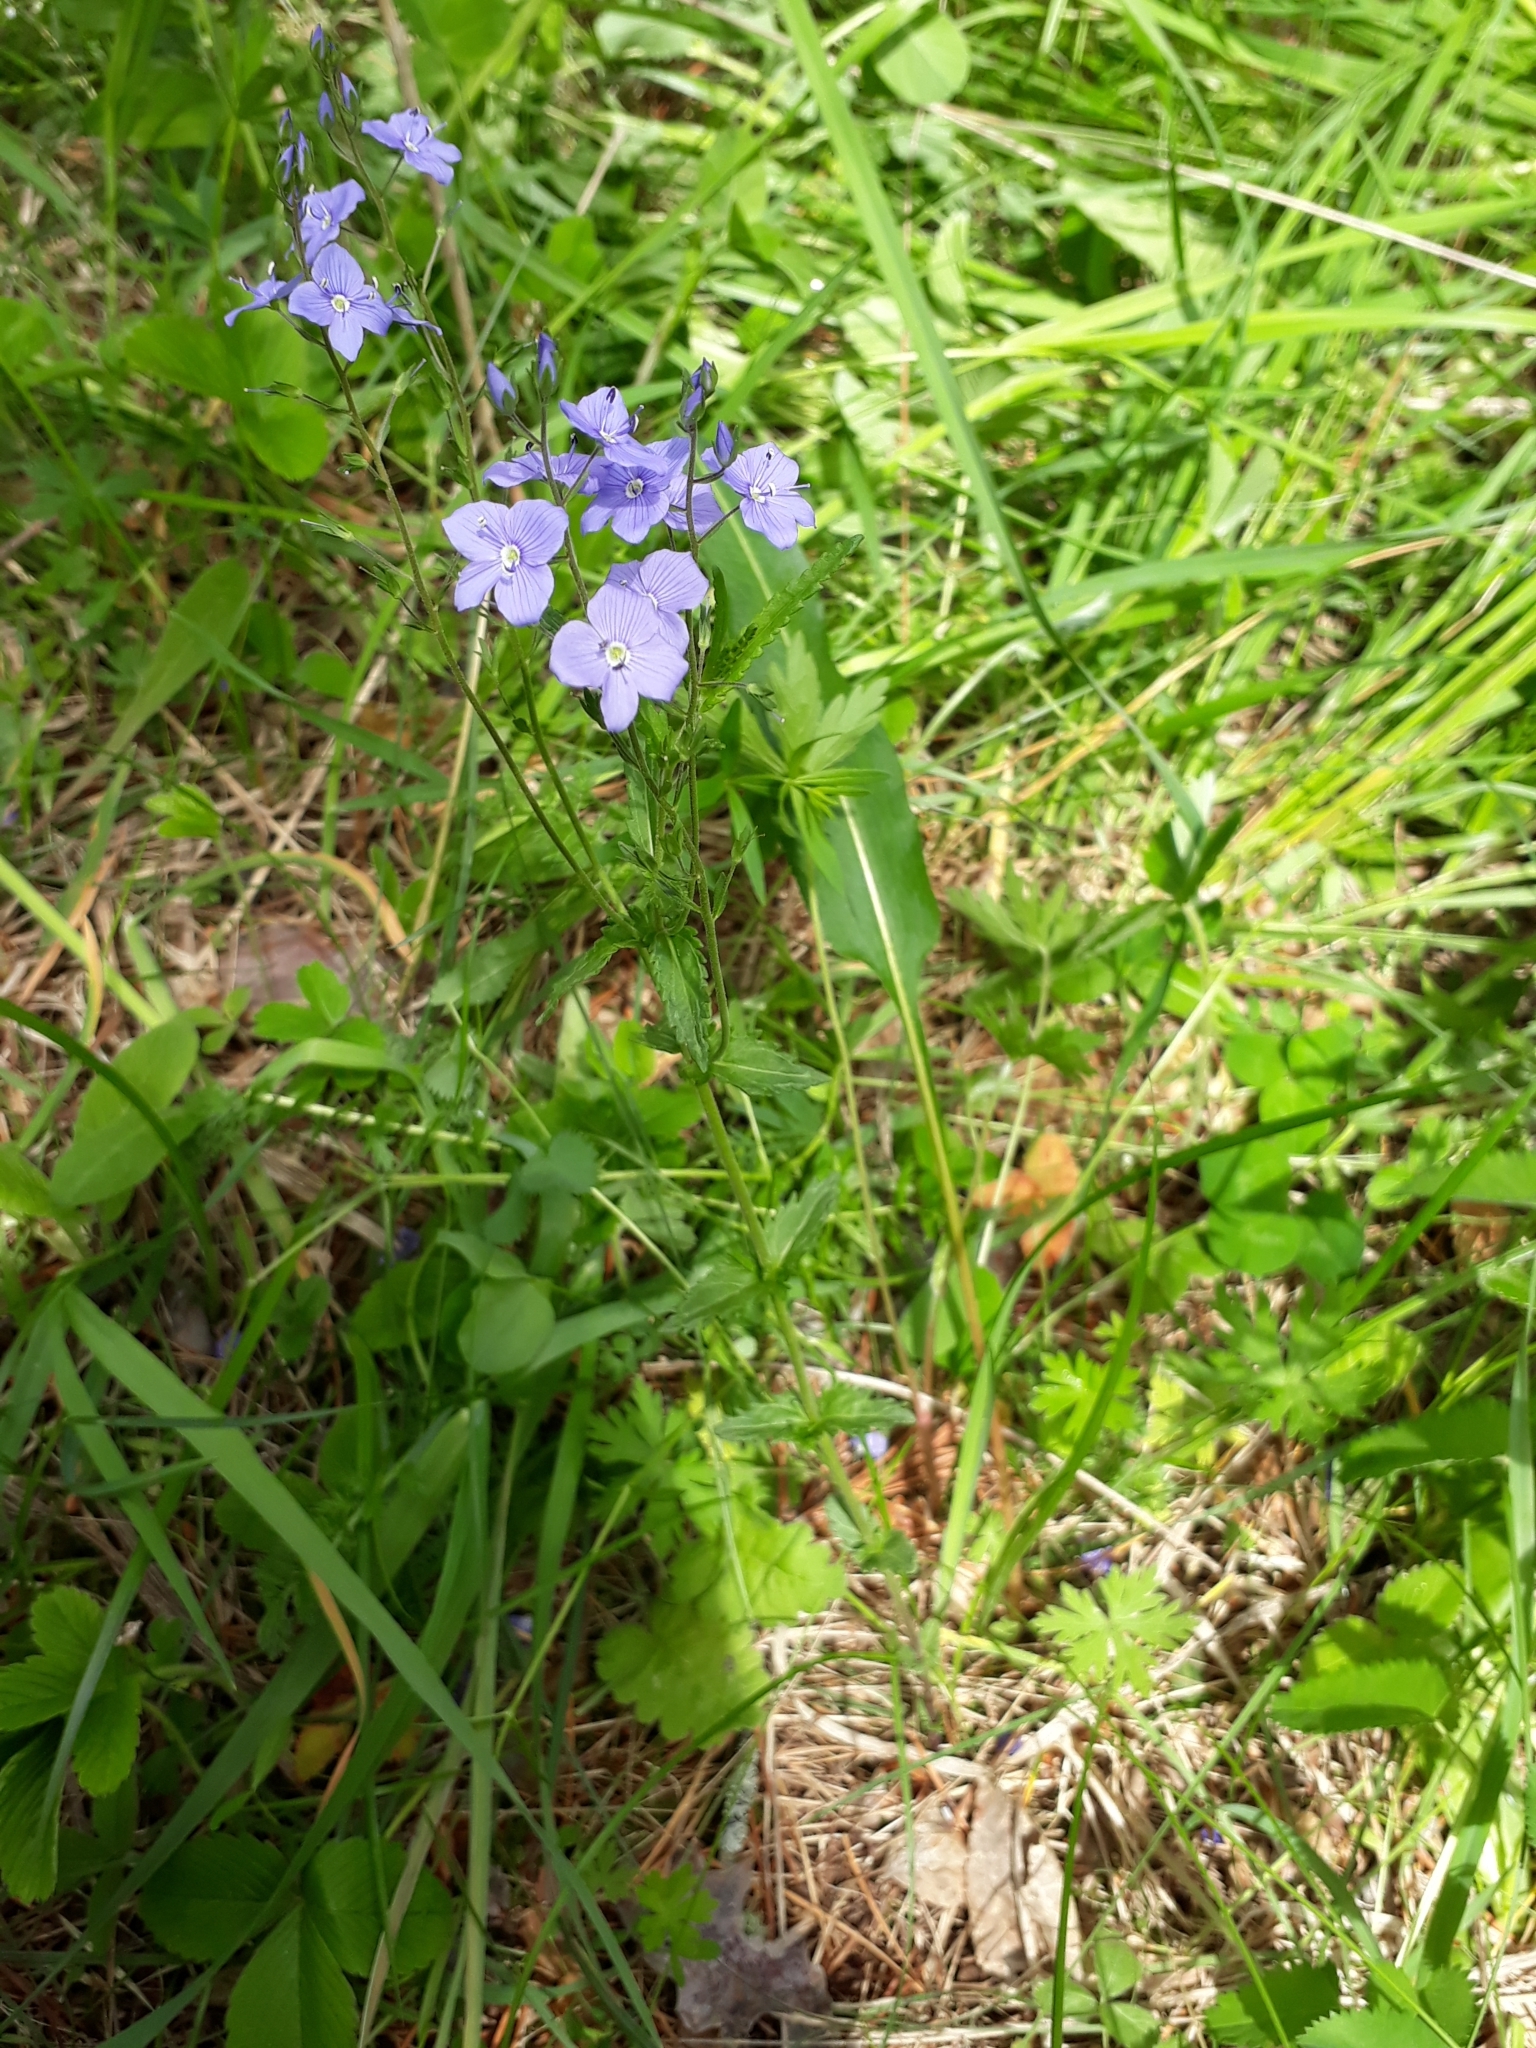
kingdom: Plantae
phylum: Tracheophyta
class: Magnoliopsida
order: Lamiales
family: Plantaginaceae
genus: Veronica
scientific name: Veronica krylovii
